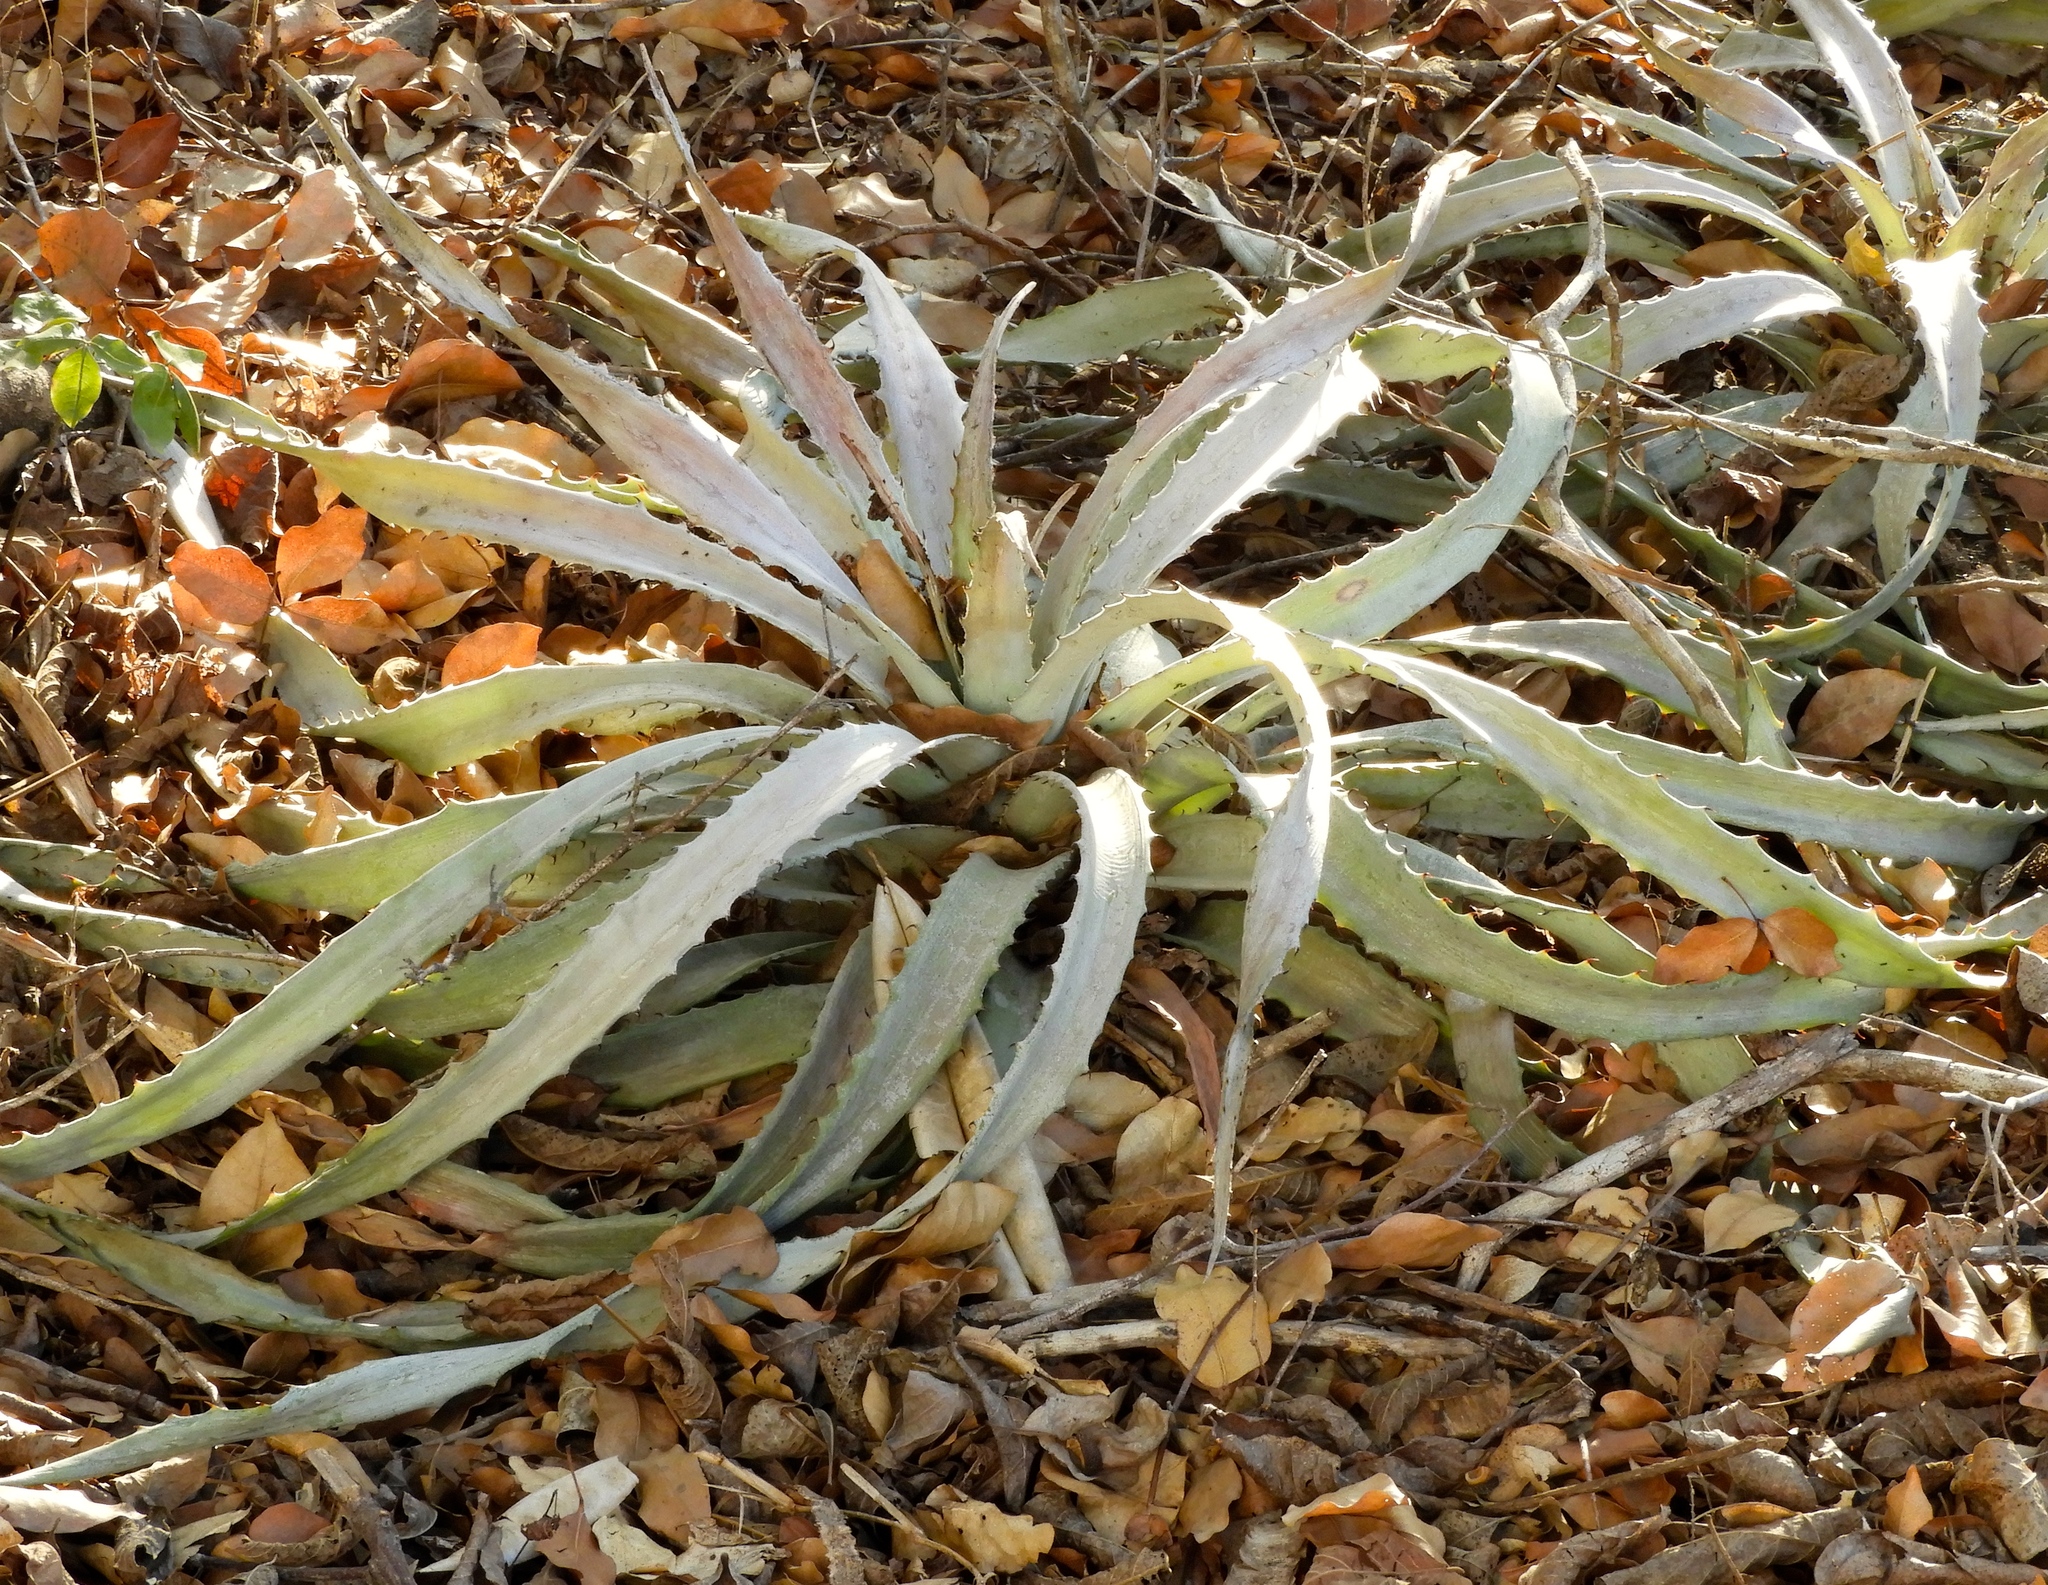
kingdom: Plantae
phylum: Tracheophyta
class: Liliopsida
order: Poales
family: Bromeliaceae
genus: Bromelia
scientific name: Bromelia pinguin
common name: Pinguin
